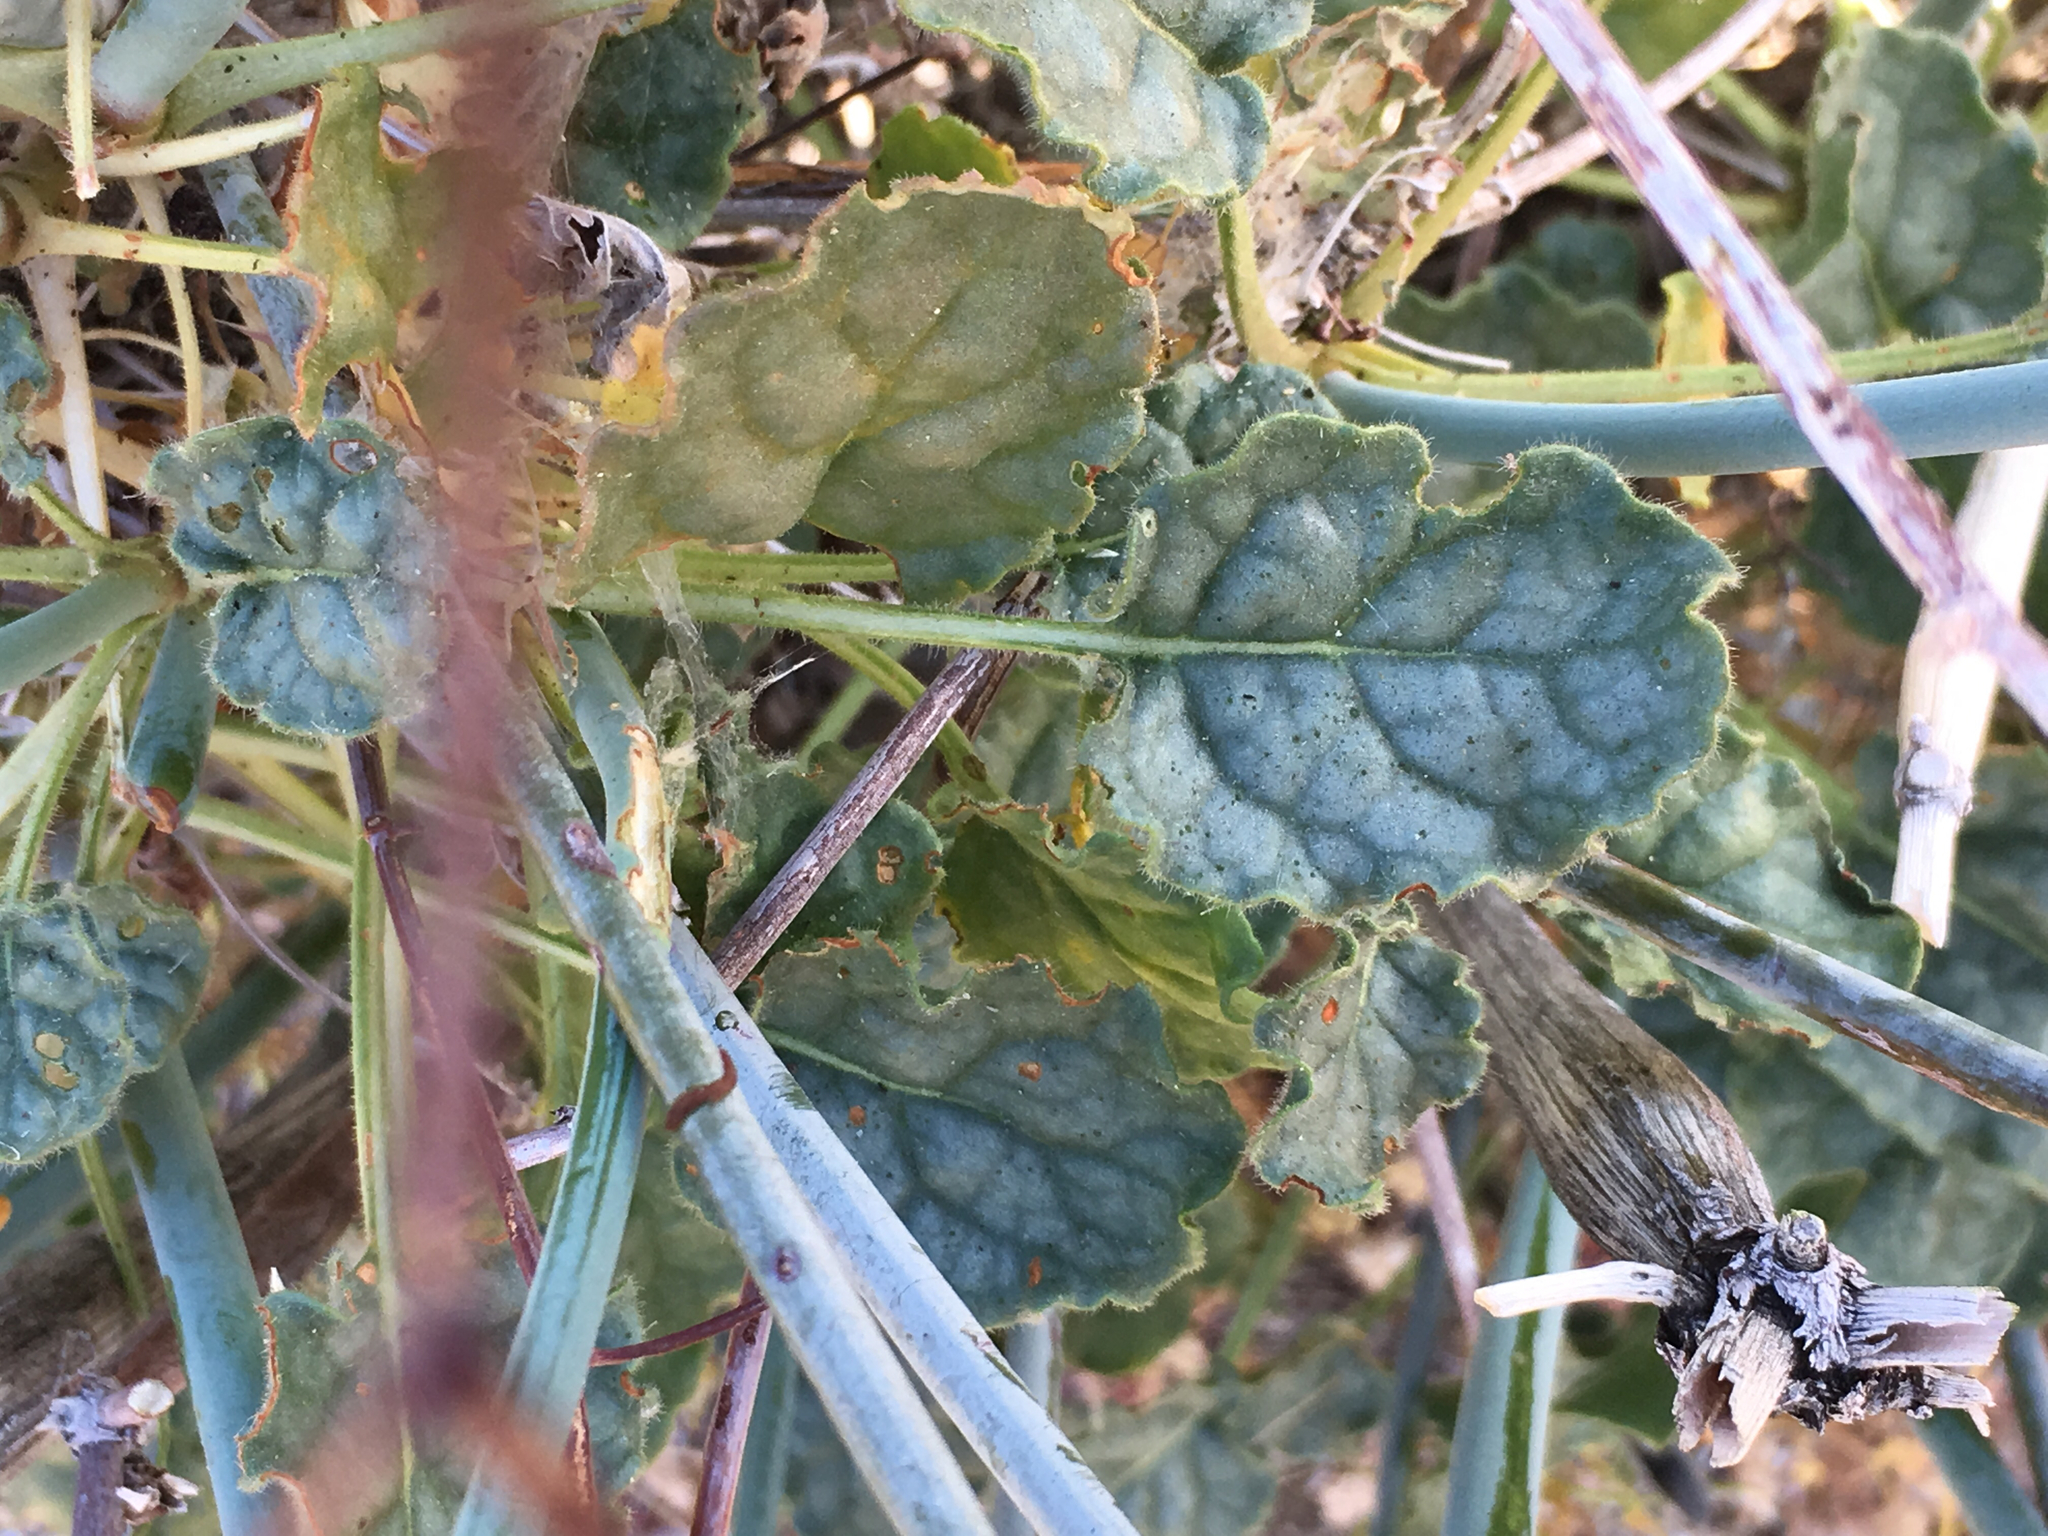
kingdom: Plantae
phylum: Tracheophyta
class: Magnoliopsida
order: Caryophyllales
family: Polygonaceae
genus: Eriogonum
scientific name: Eriogonum inflatum
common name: Desert trumpet
